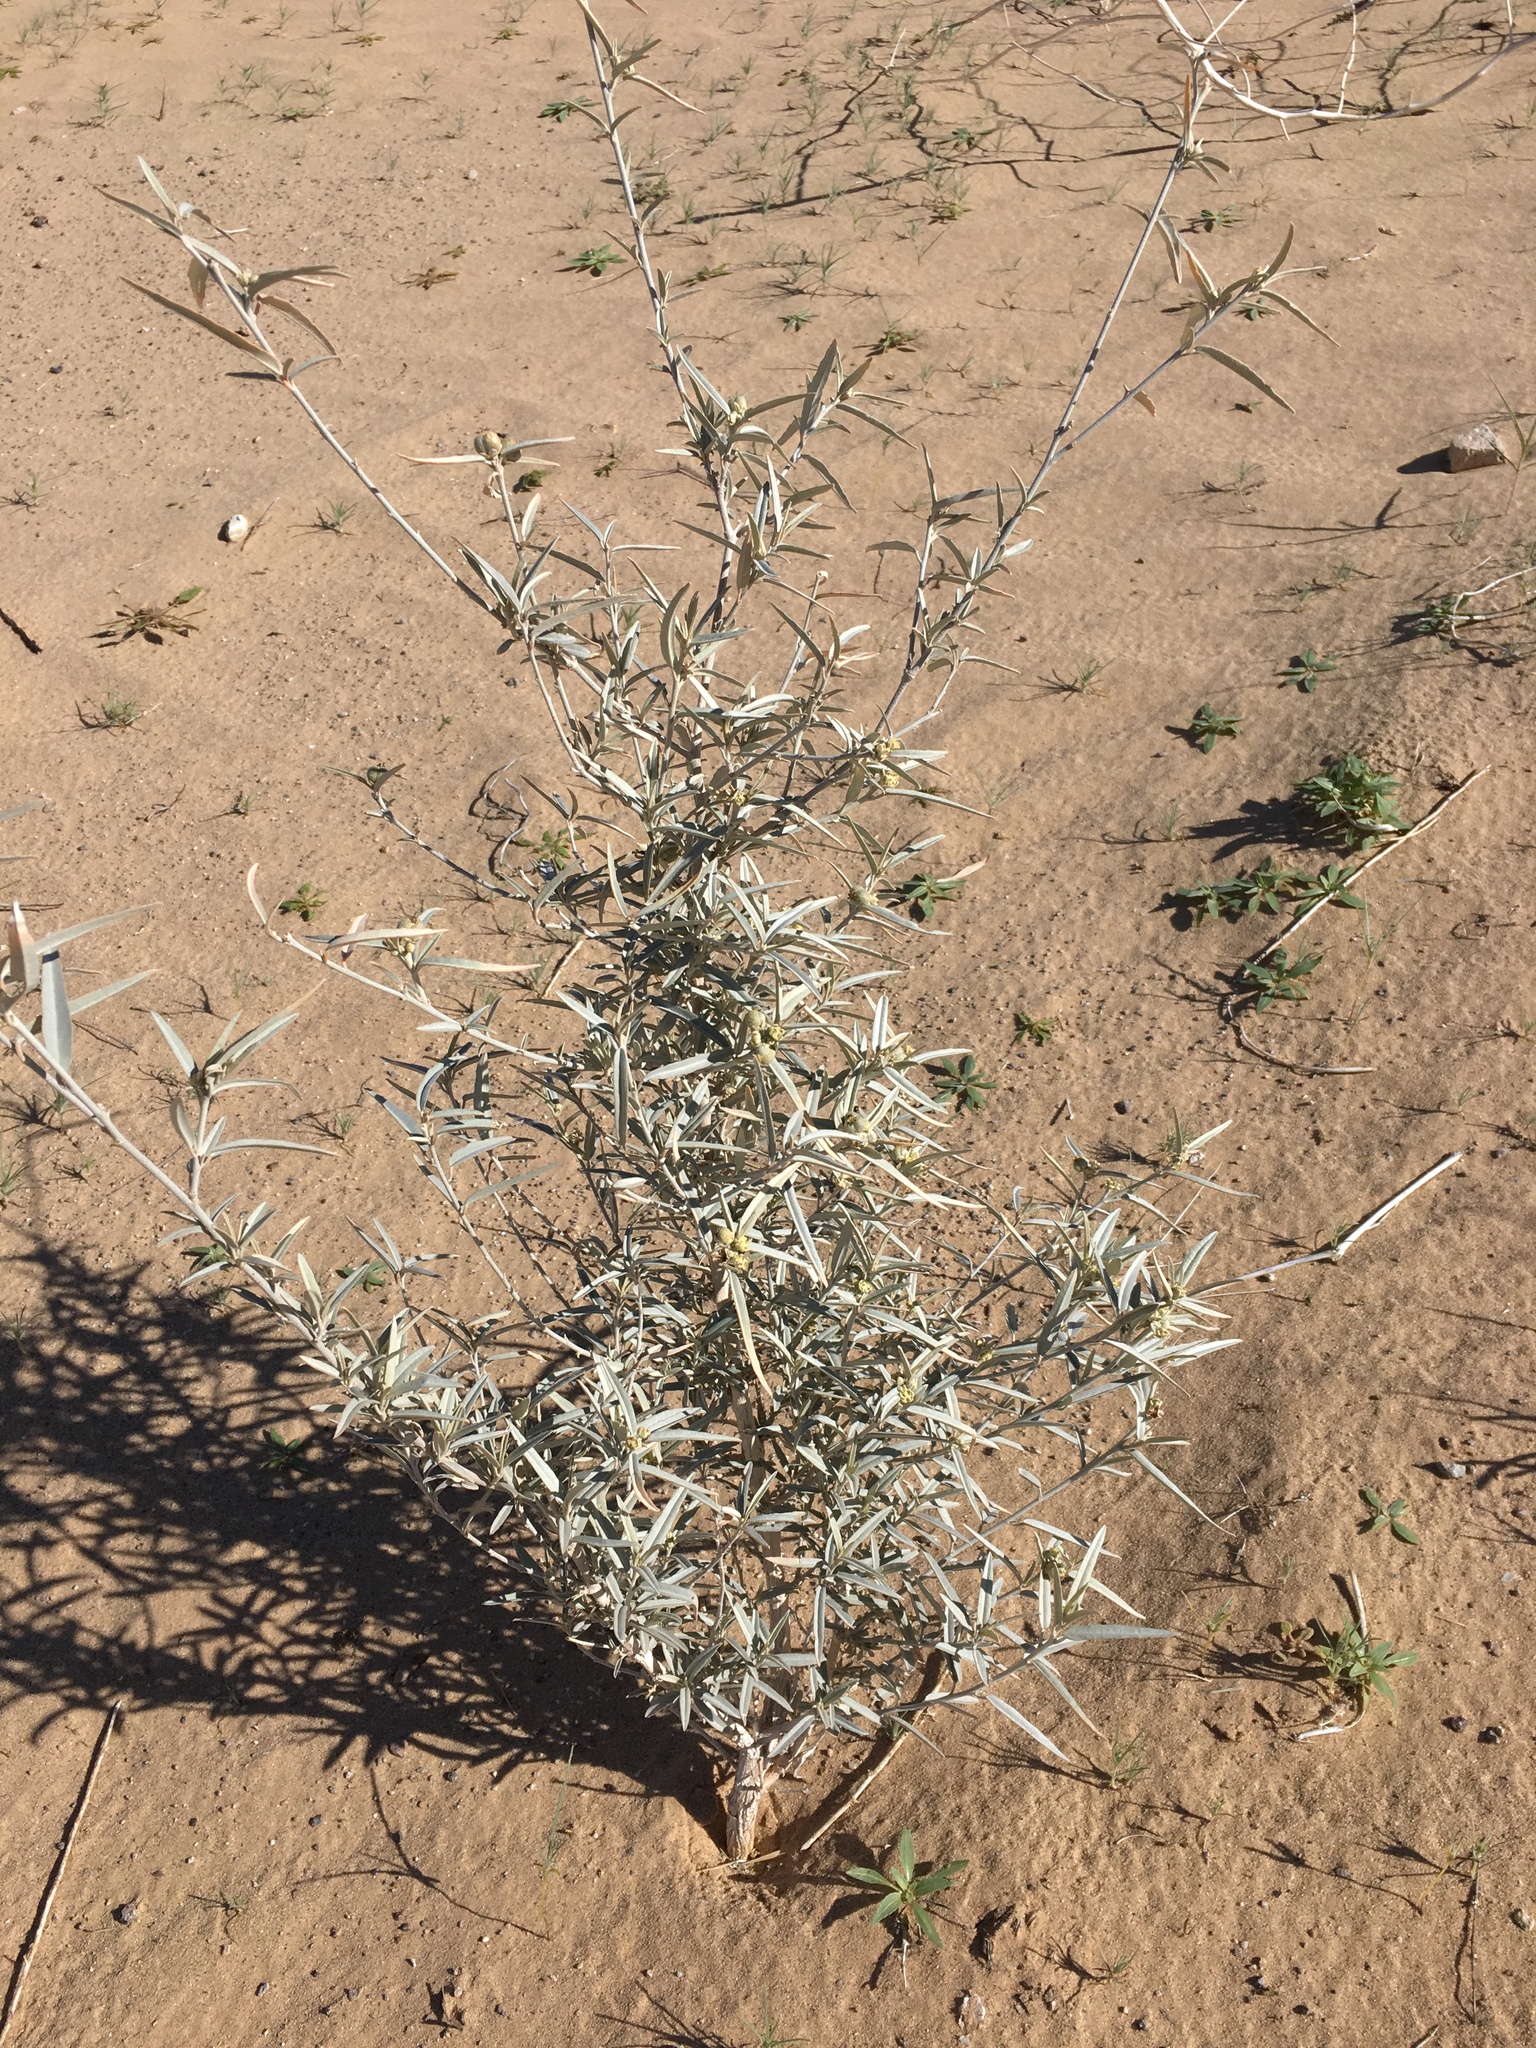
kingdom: Plantae
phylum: Tracheophyta
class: Magnoliopsida
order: Malpighiales
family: Euphorbiaceae
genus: Croton
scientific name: Croton wigginsii
